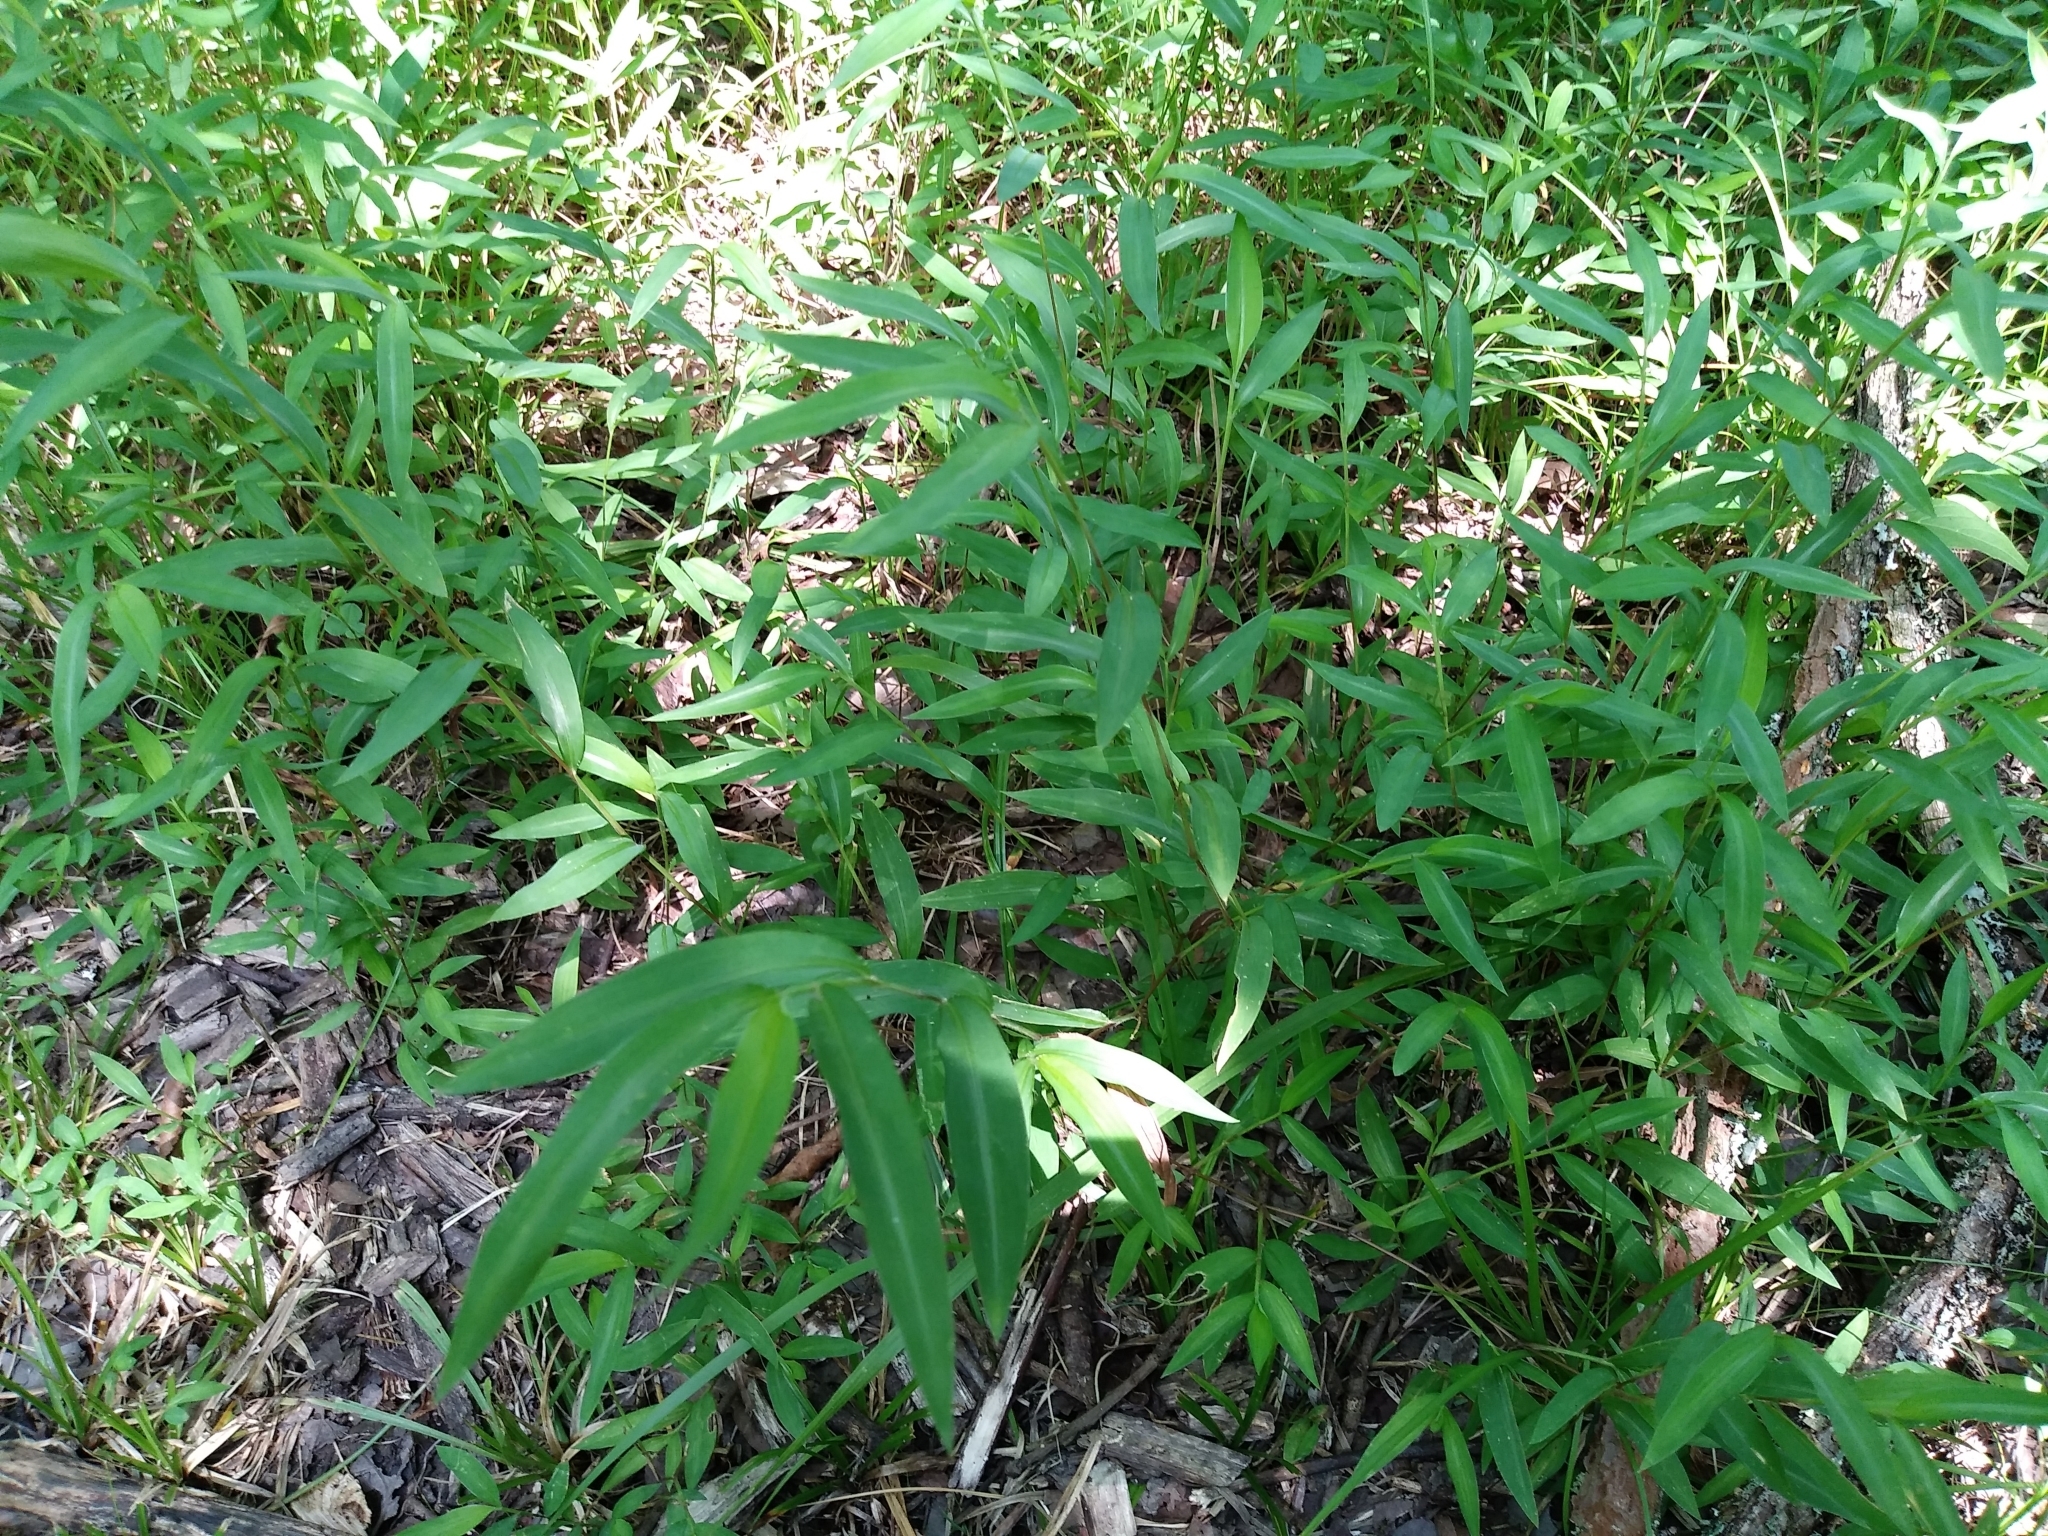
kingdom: Plantae
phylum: Tracheophyta
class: Liliopsida
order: Poales
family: Poaceae
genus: Microstegium
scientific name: Microstegium vimineum
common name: Japanese stiltgrass
